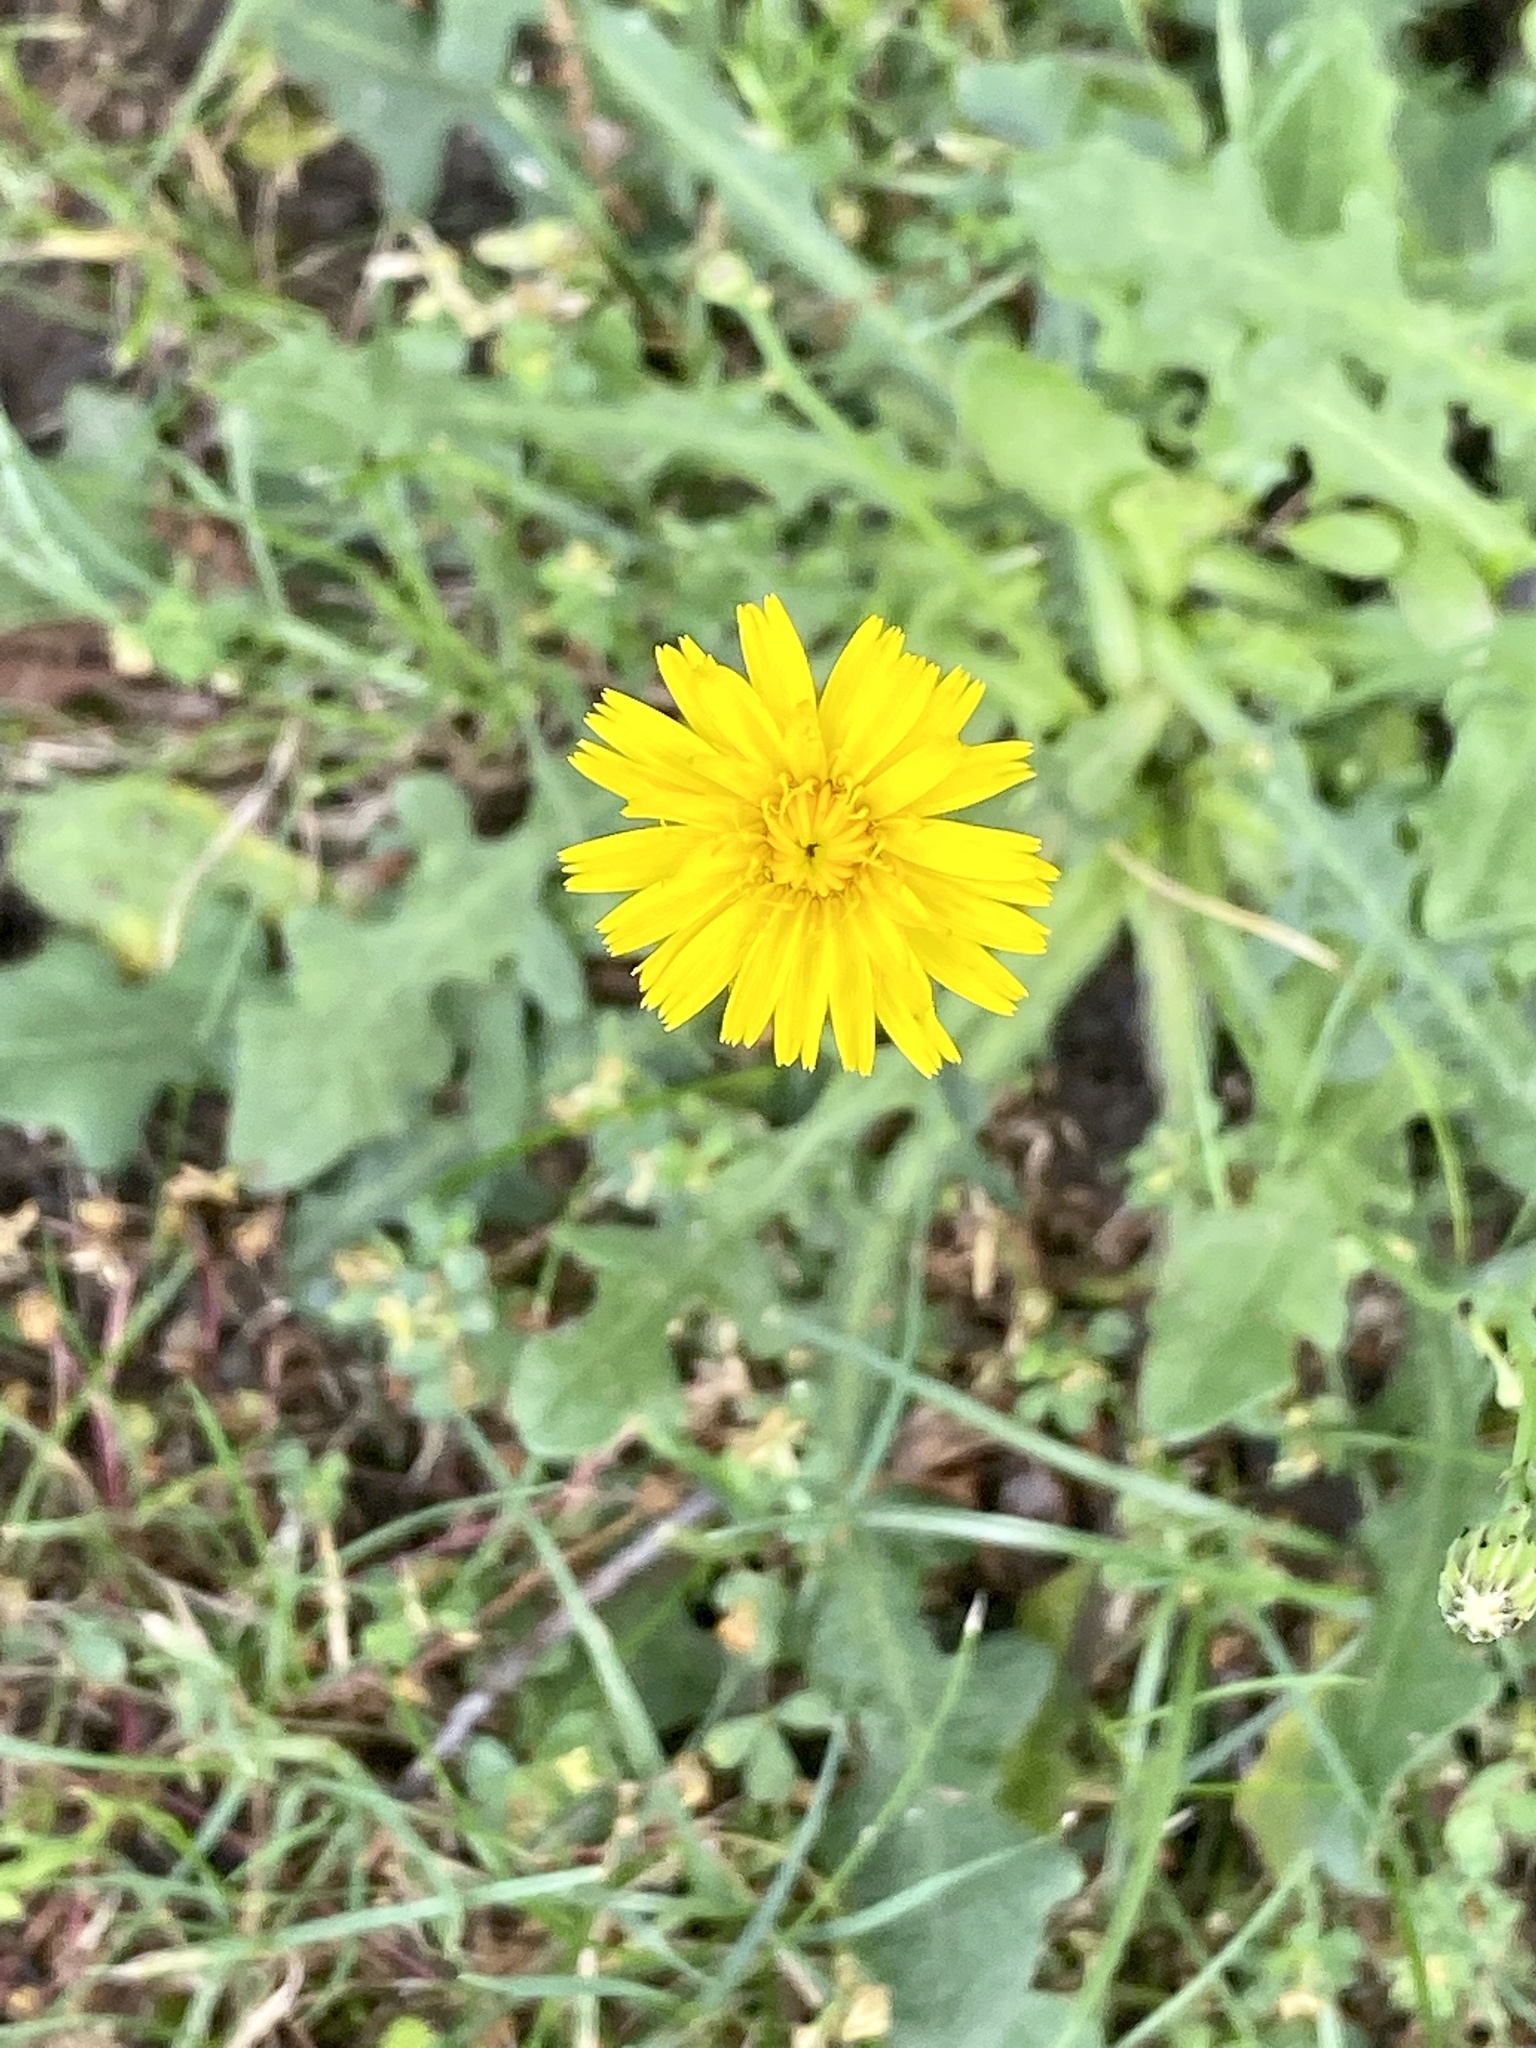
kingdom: Plantae
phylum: Tracheophyta
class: Magnoliopsida
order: Asterales
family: Asteraceae
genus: Hypochaeris
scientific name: Hypochaeris radicata
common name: Flatweed
